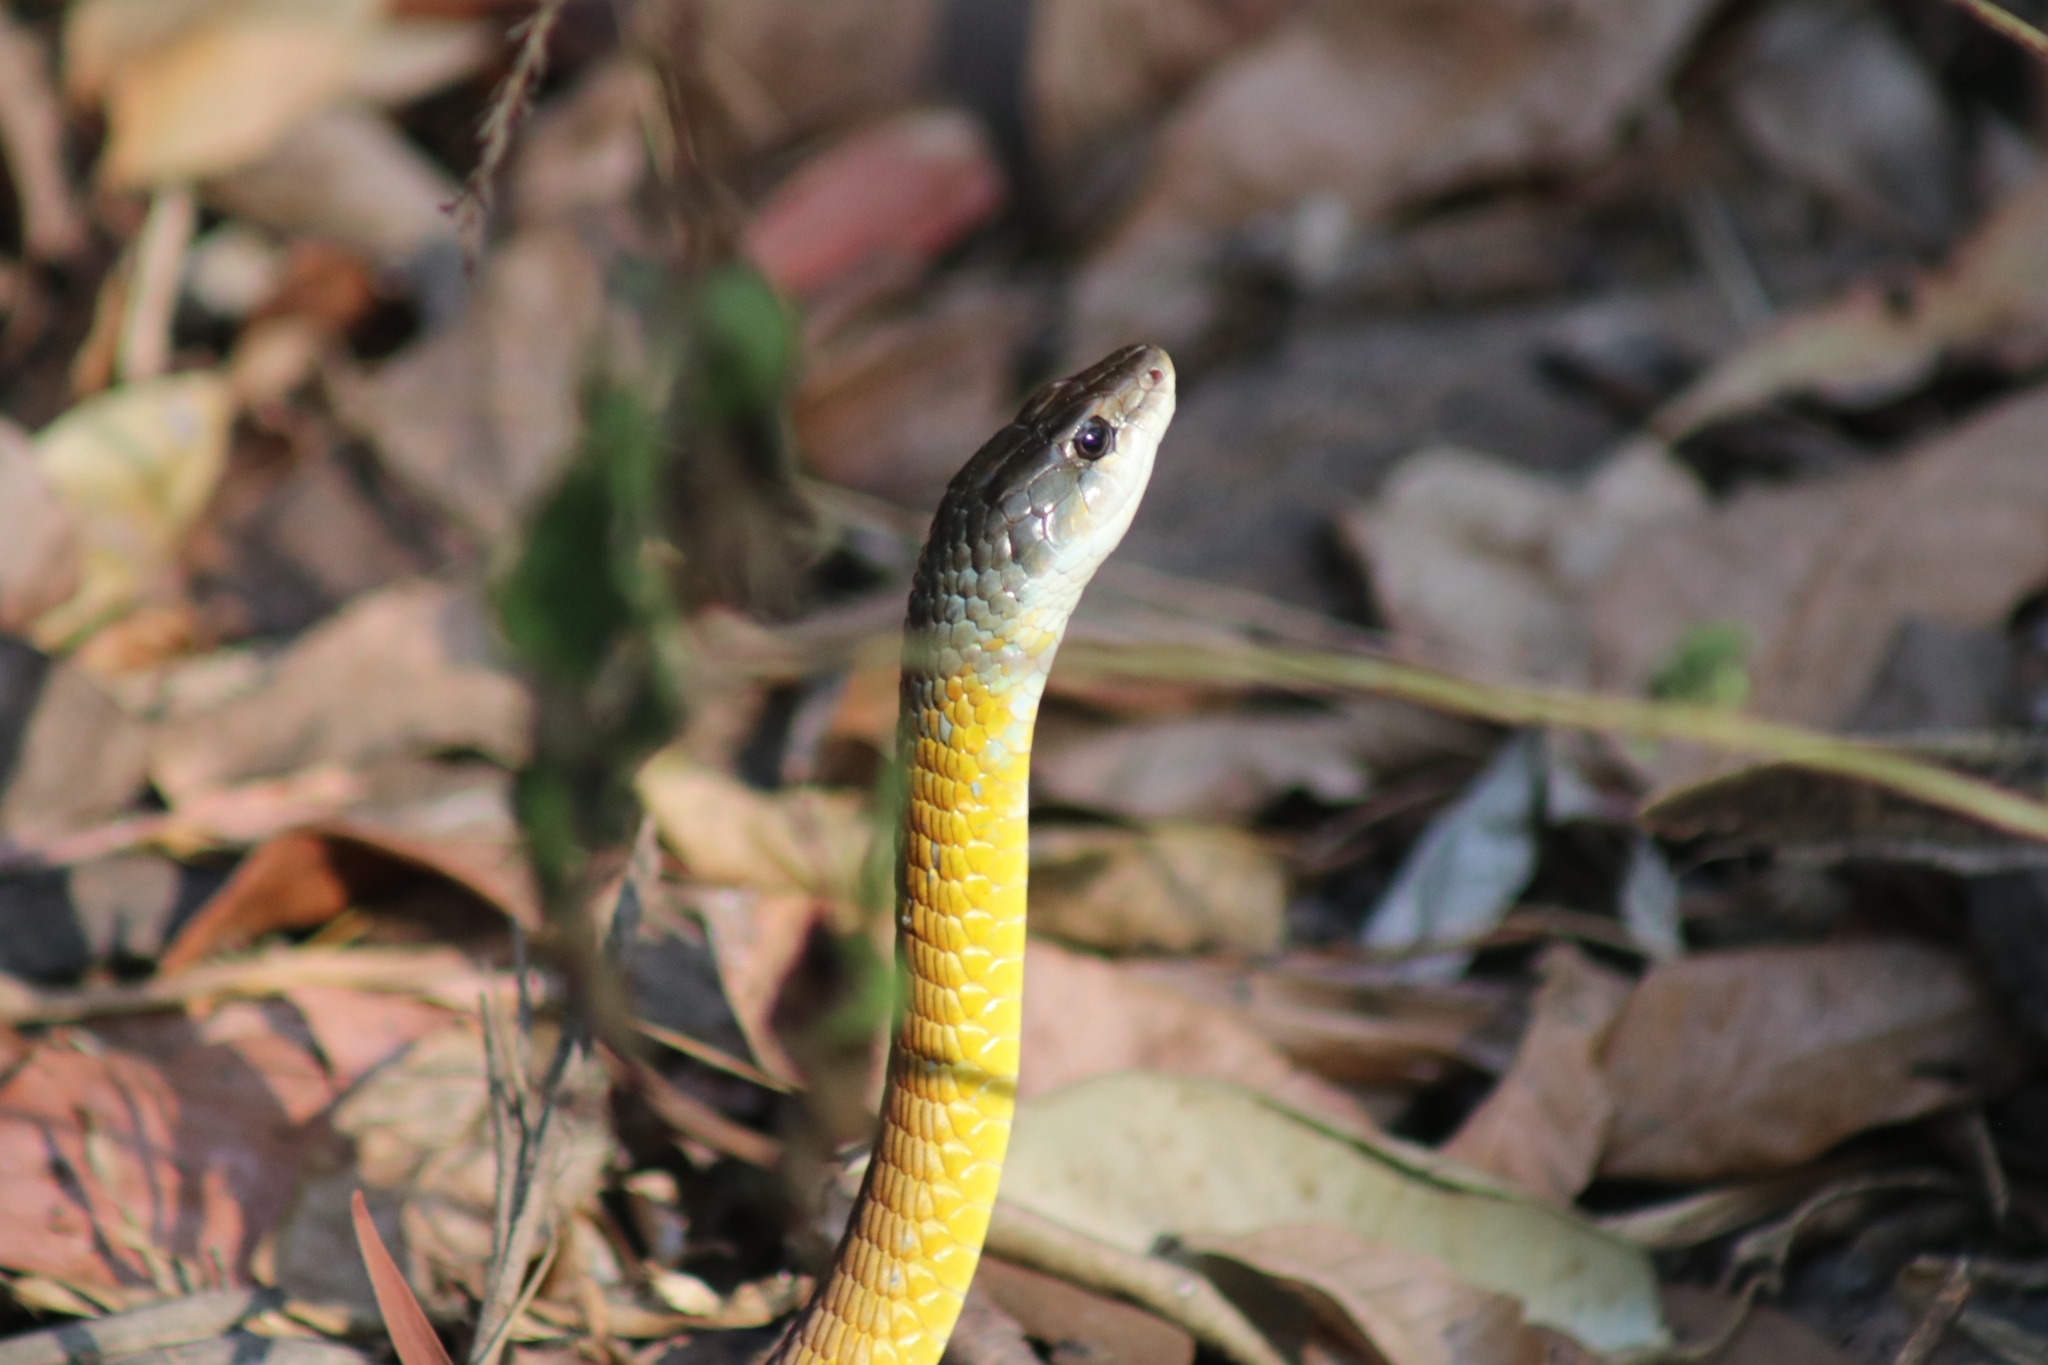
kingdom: Animalia
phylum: Chordata
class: Squamata
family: Colubridae
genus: Dendrelaphis
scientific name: Dendrelaphis punctulatus
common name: Common tree snake
